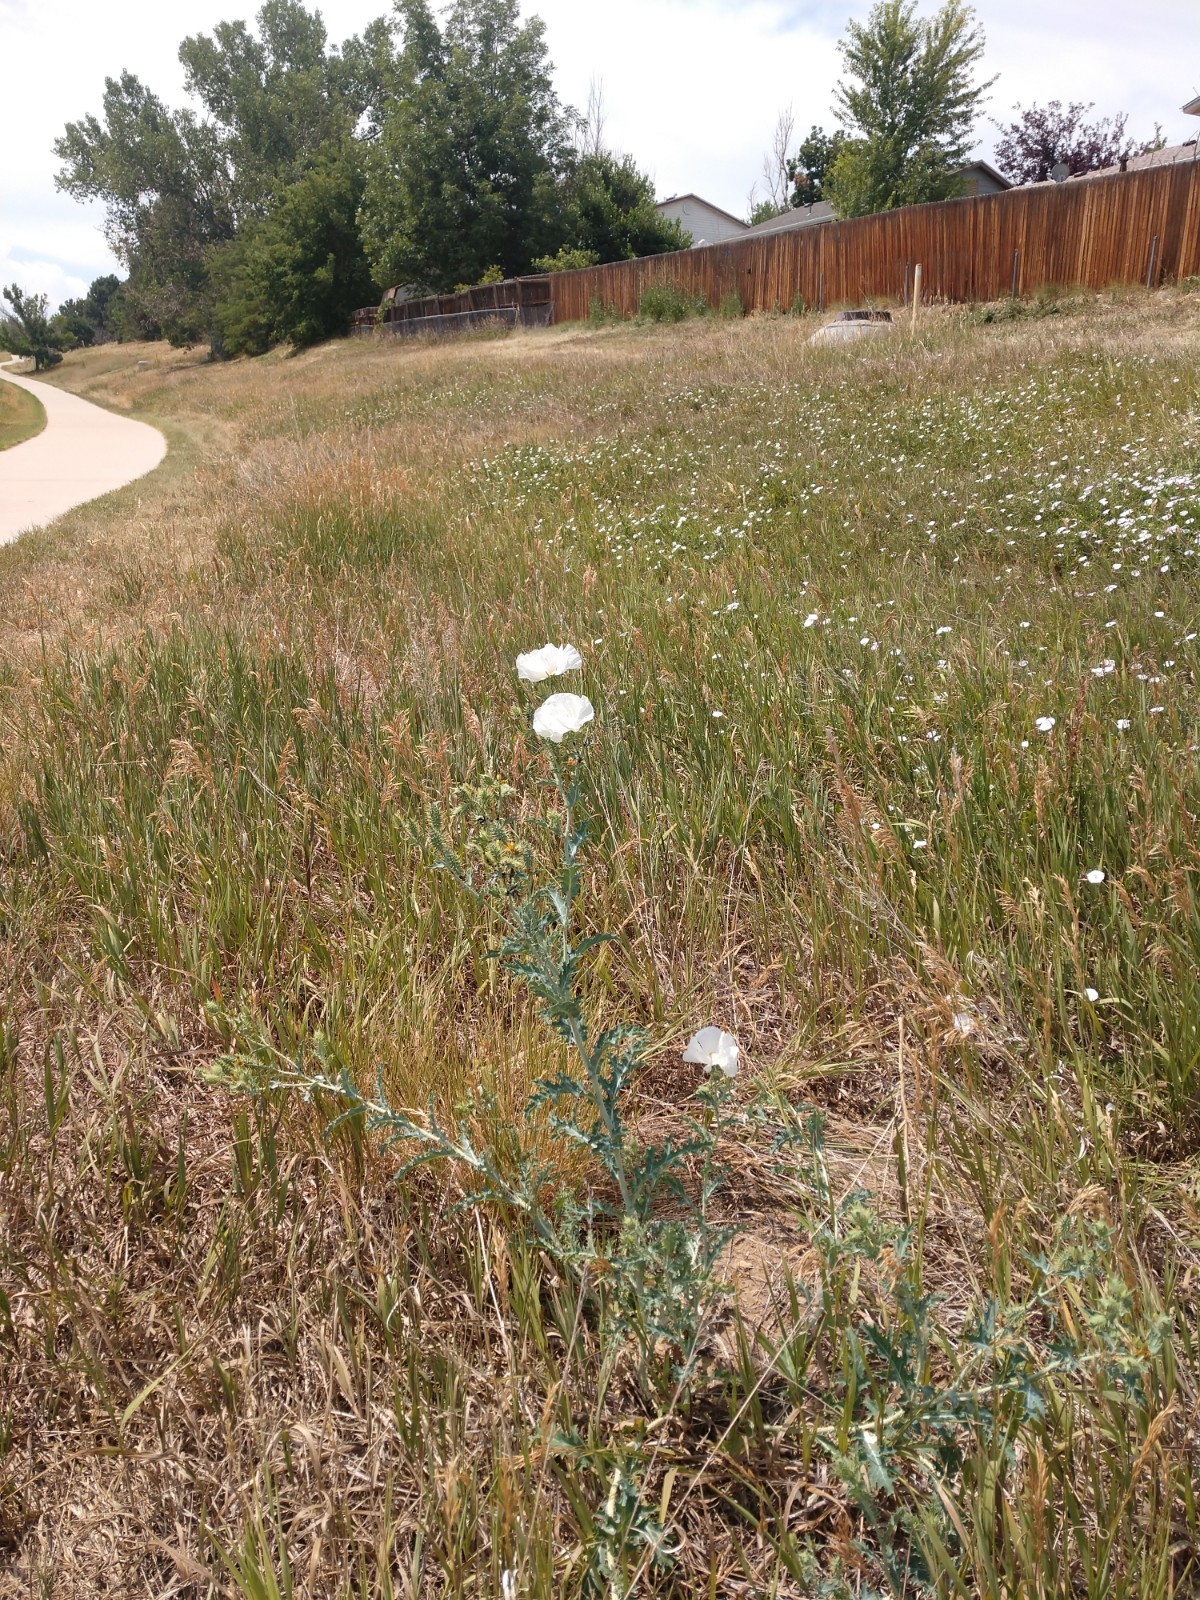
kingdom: Plantae
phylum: Tracheophyta
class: Magnoliopsida
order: Ranunculales
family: Papaveraceae
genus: Argemone
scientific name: Argemone polyanthemos
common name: Plains prickly-poppy
